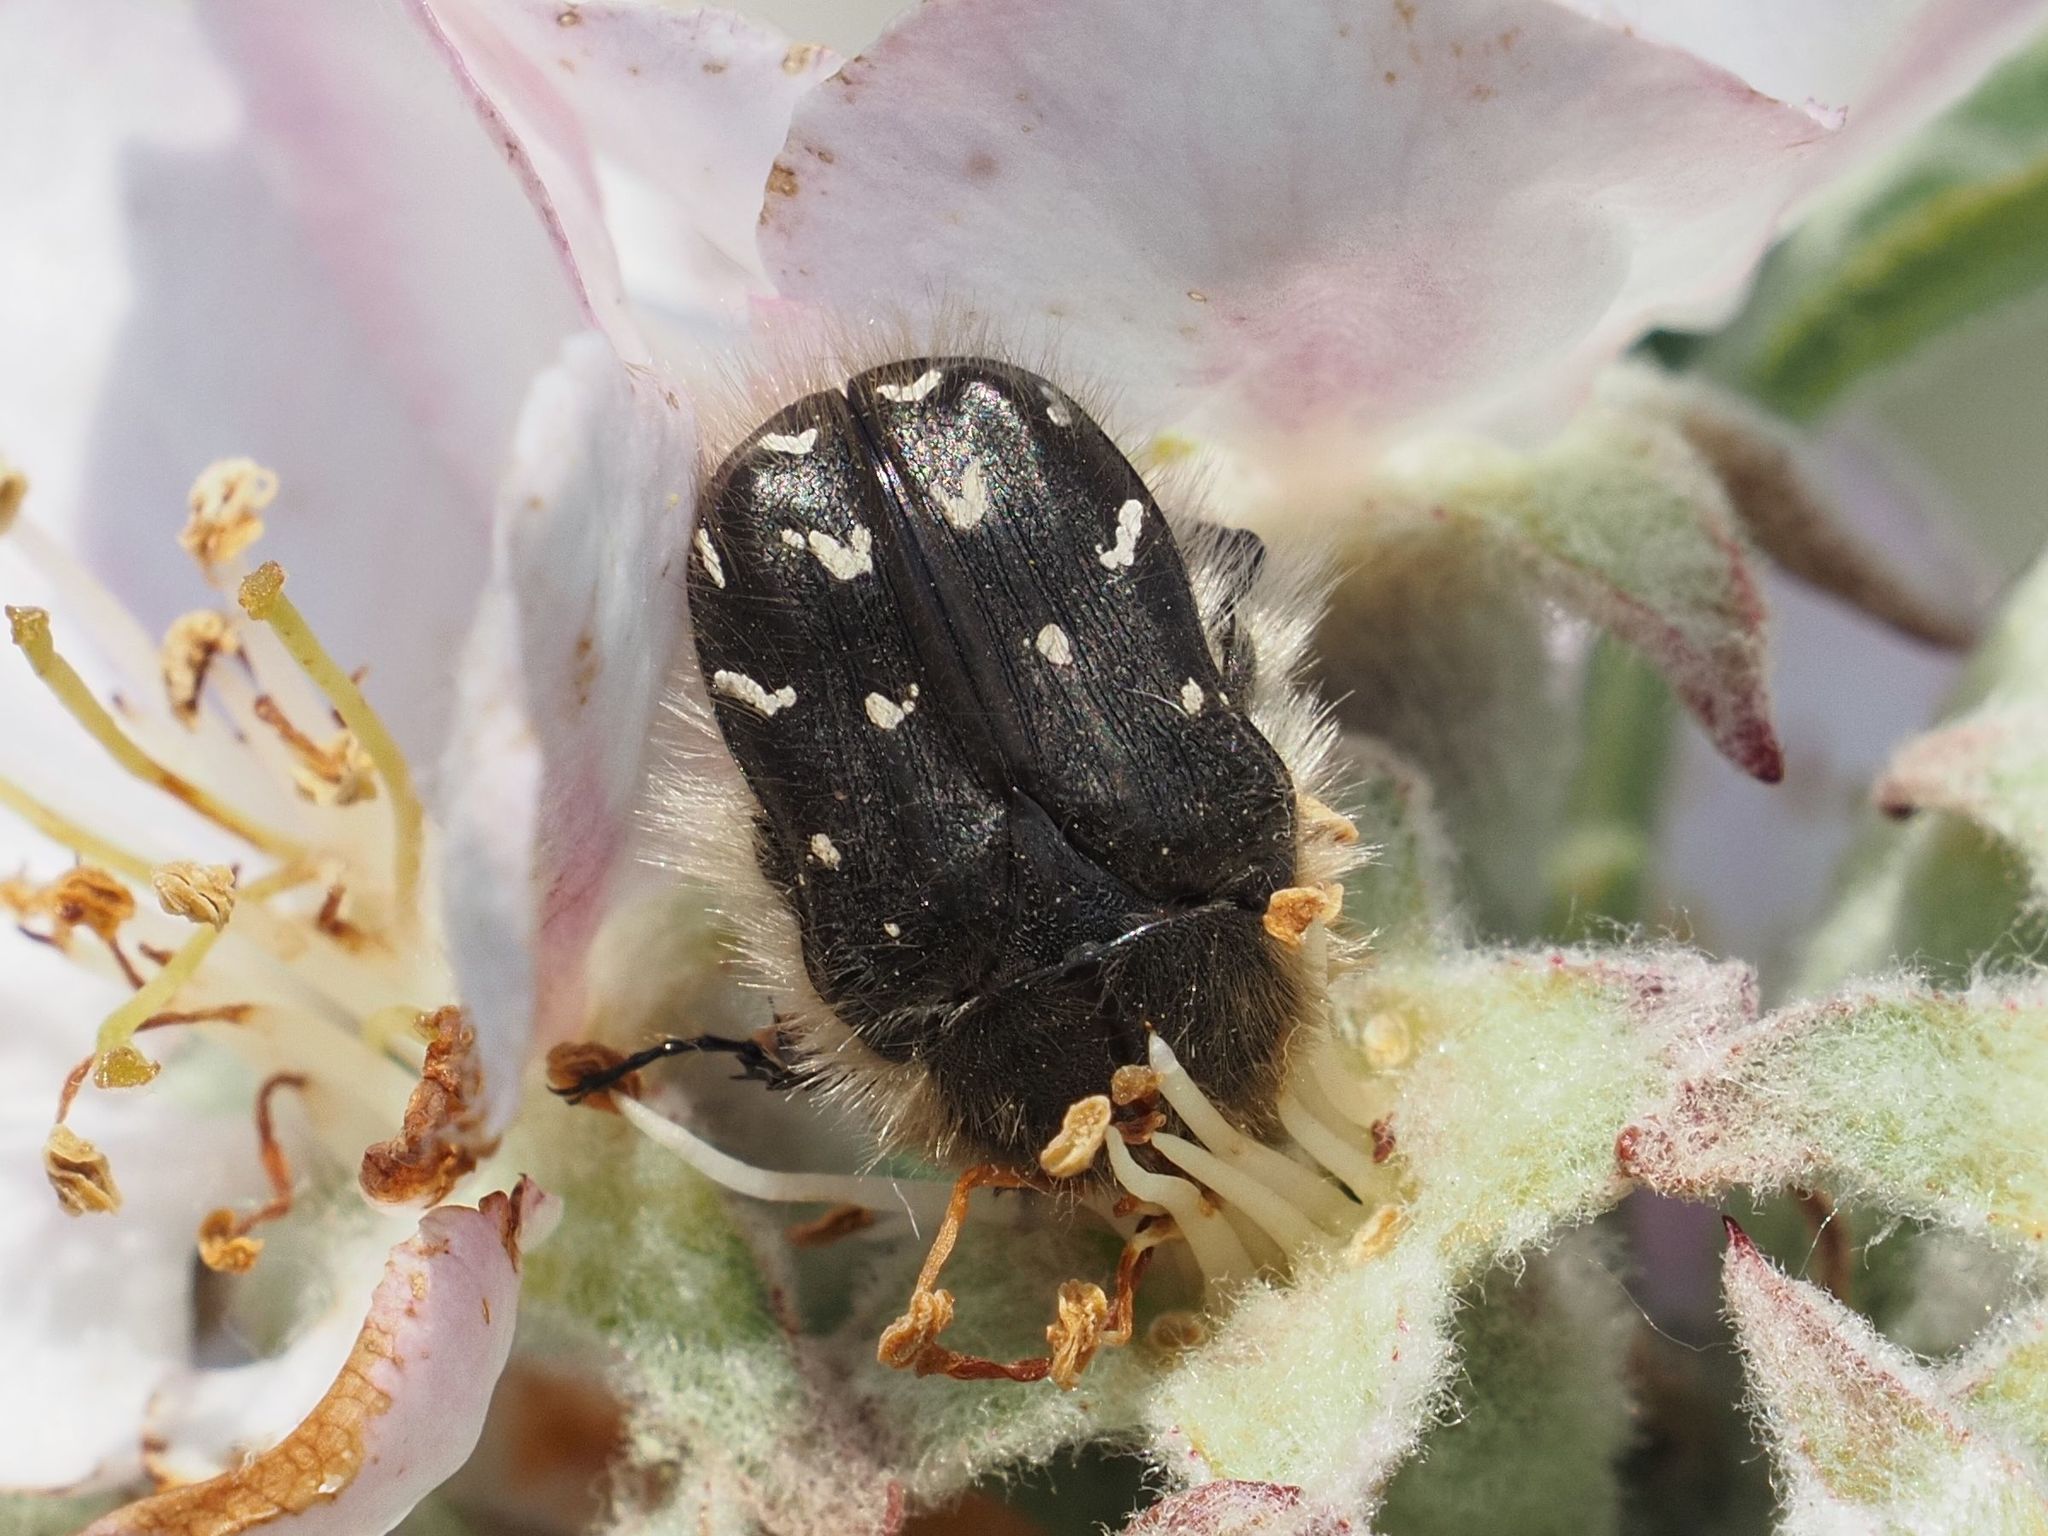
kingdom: Animalia
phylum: Arthropoda
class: Insecta
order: Coleoptera
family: Scarabaeidae
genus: Tropinota
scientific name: Tropinota hirta
